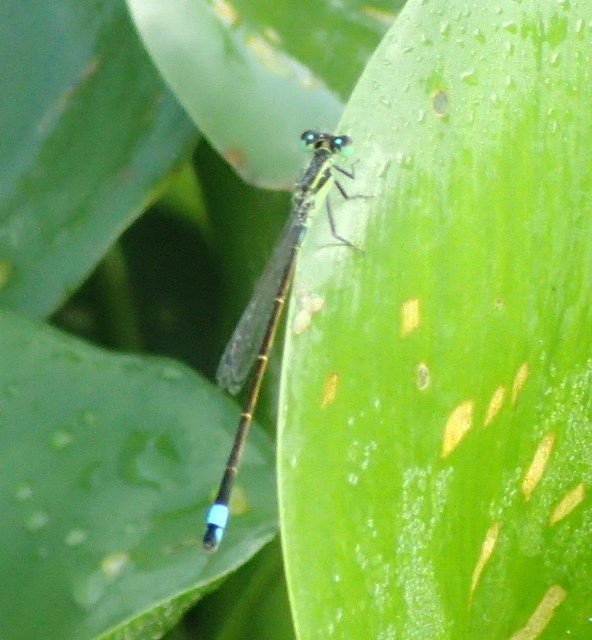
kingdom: Animalia
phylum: Arthropoda
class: Insecta
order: Odonata
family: Coenagrionidae
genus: Ischnura
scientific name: Ischnura ramburii
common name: Rambur's forktail
